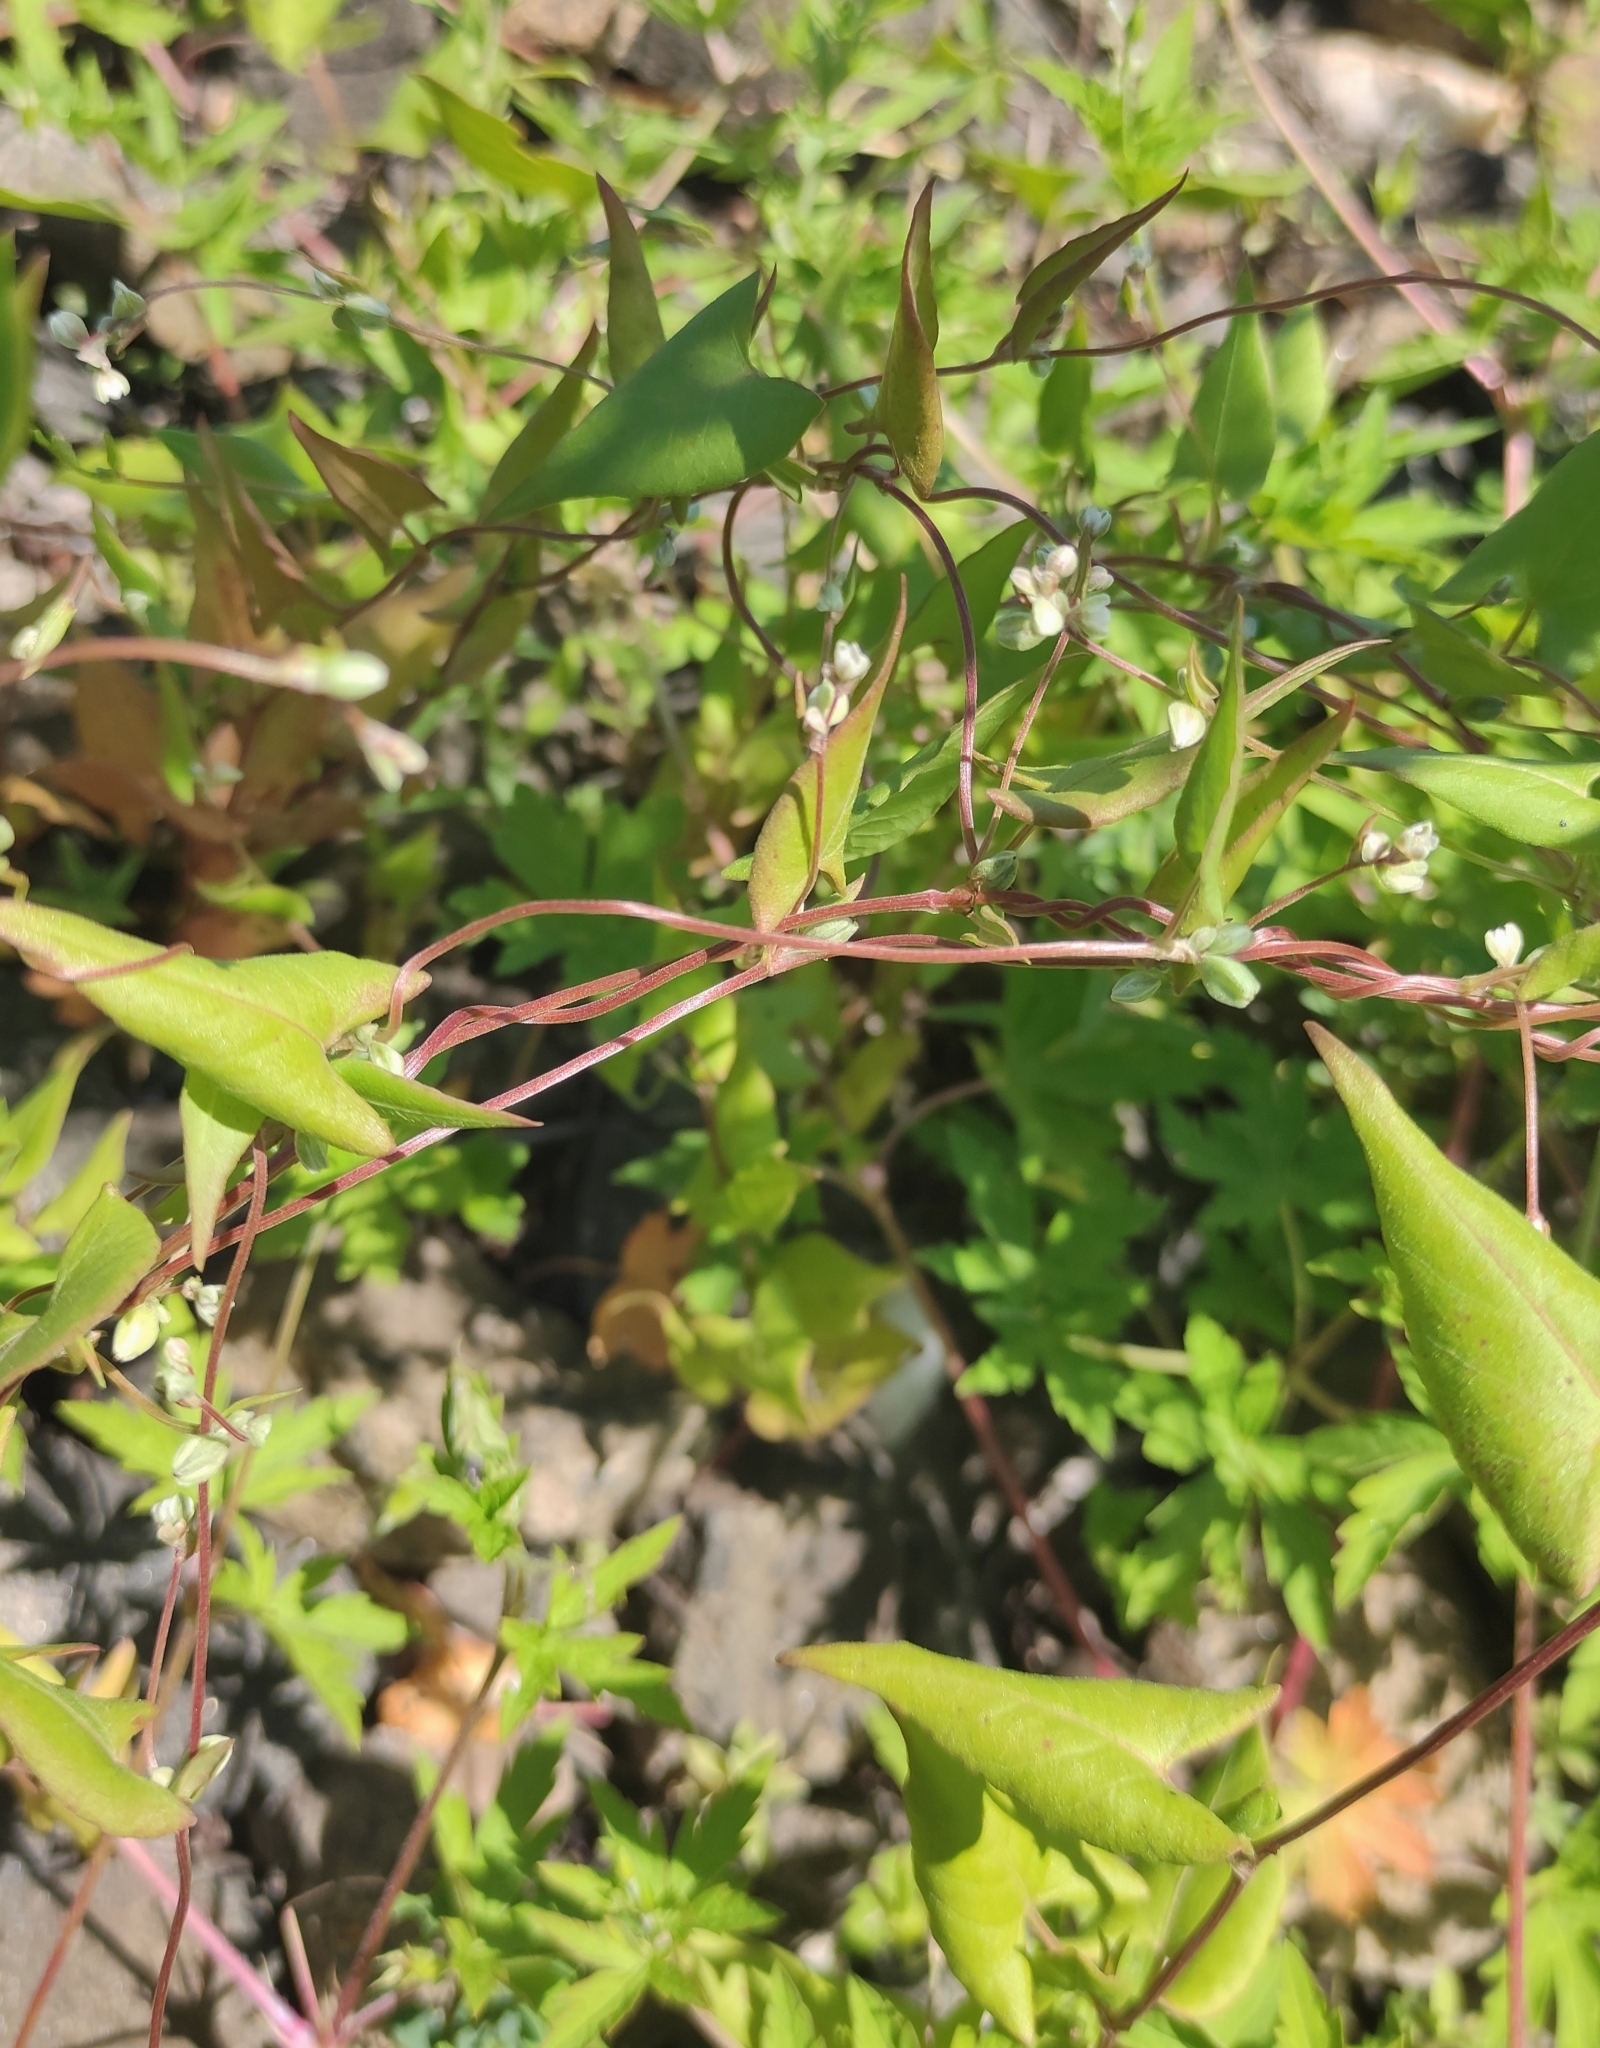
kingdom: Plantae
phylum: Tracheophyta
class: Magnoliopsida
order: Caryophyllales
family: Polygonaceae
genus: Fallopia
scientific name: Fallopia convolvulus
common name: Black bindweed
